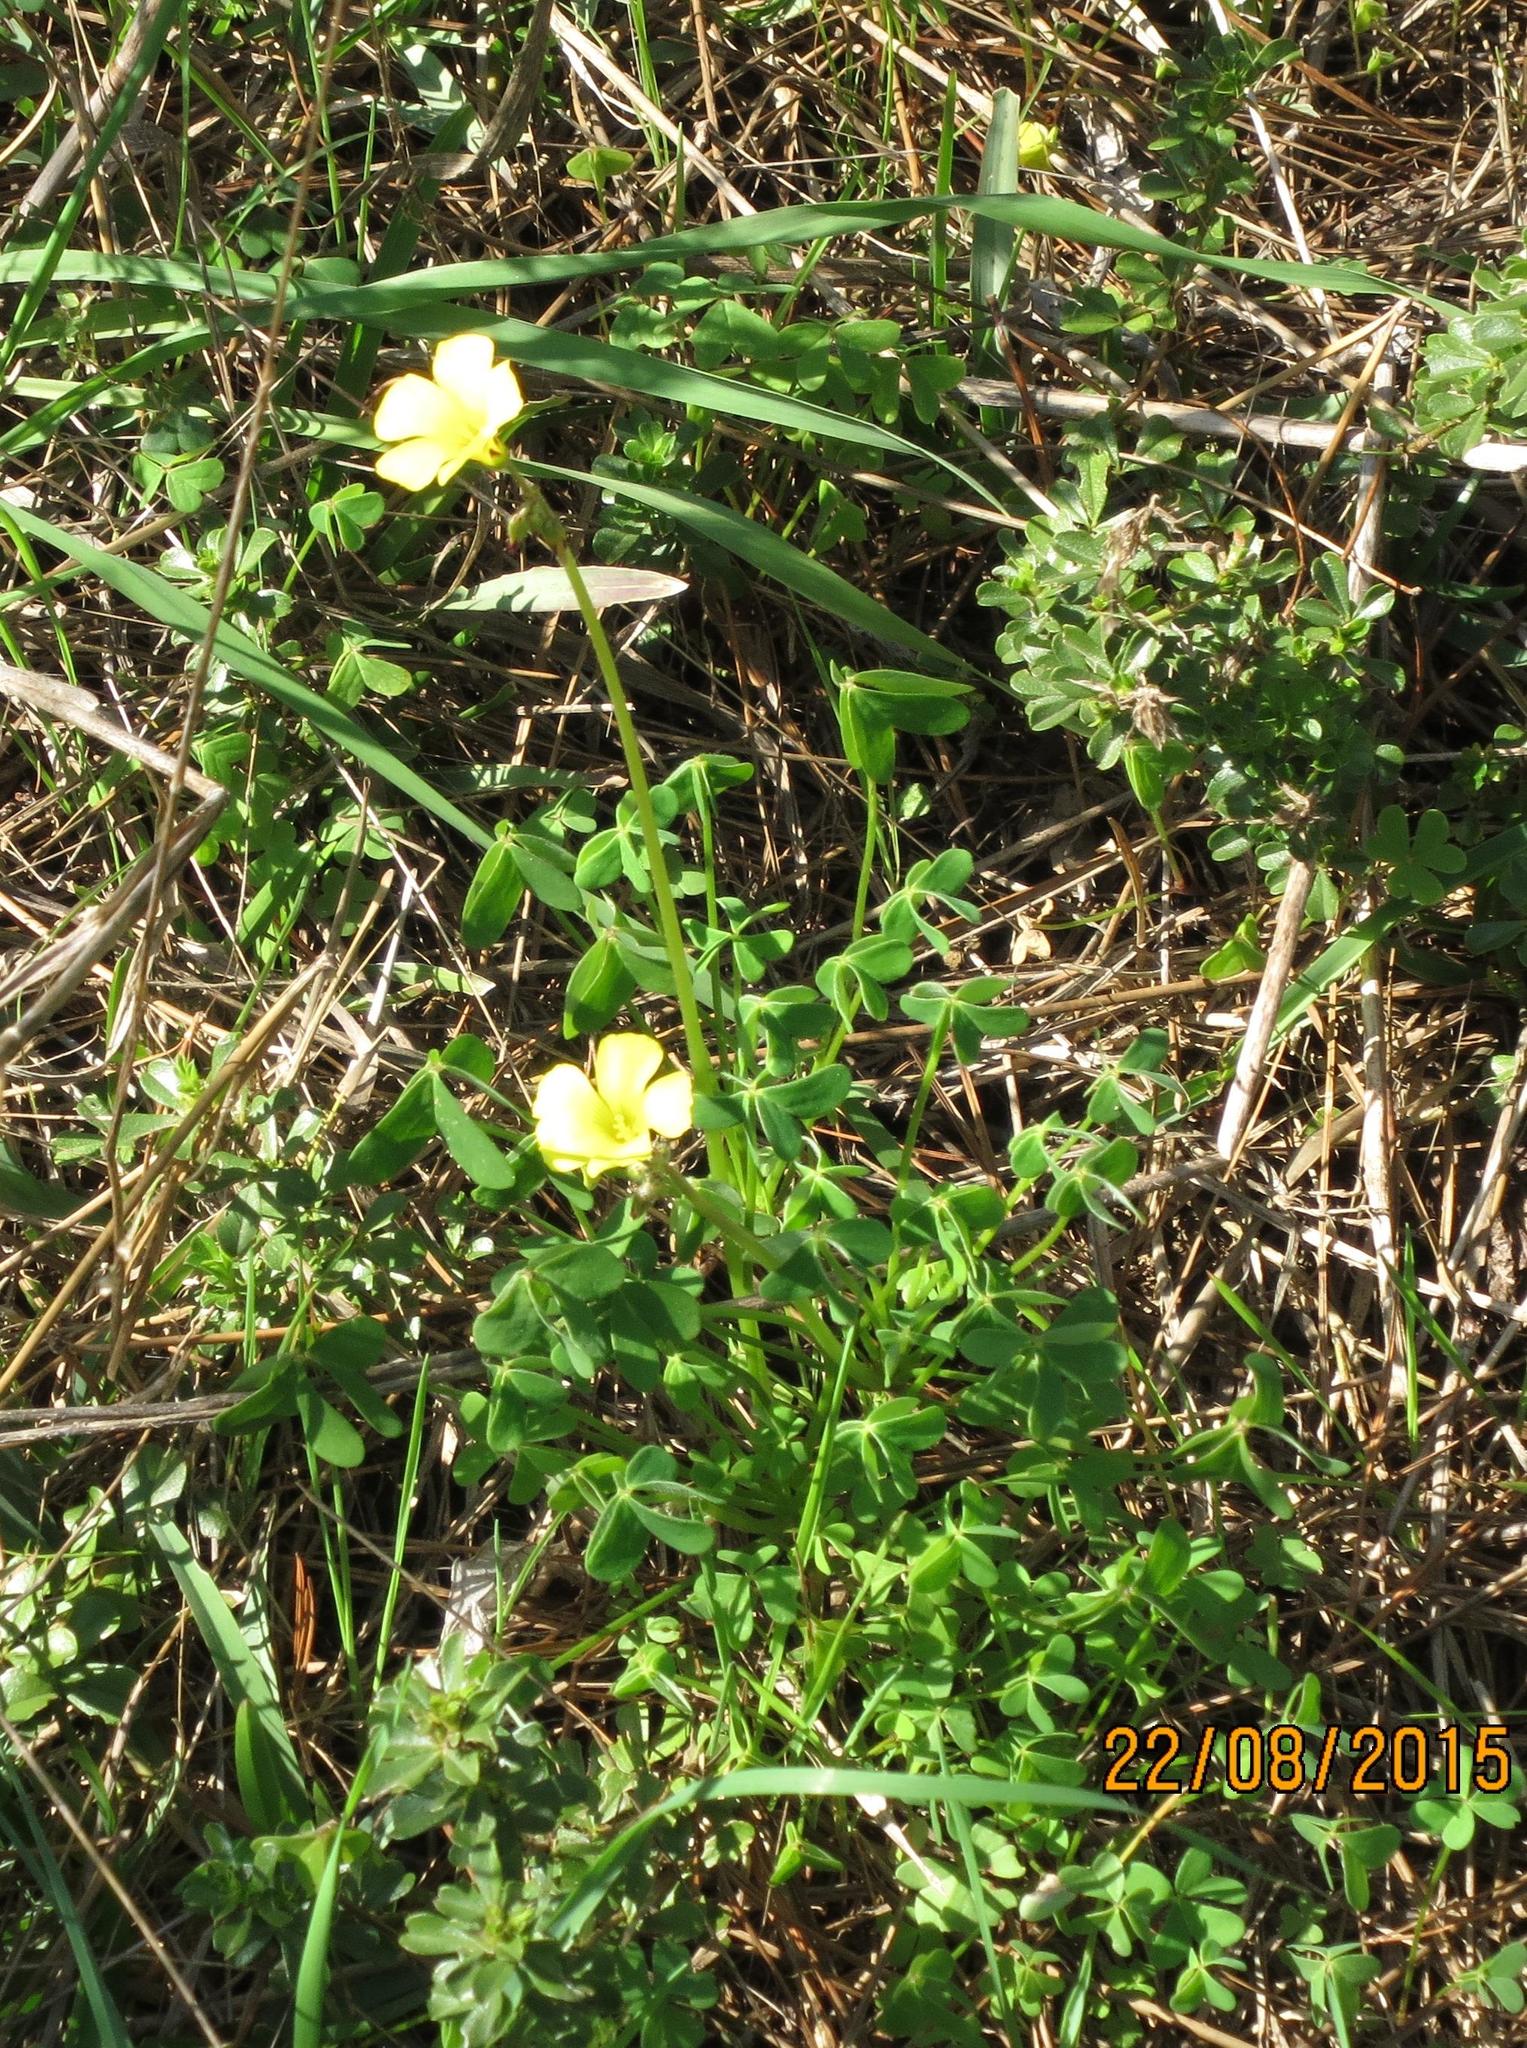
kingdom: Plantae
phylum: Tracheophyta
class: Magnoliopsida
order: Oxalidales
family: Oxalidaceae
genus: Oxalis
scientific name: Oxalis pes-caprae
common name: Bermuda-buttercup
